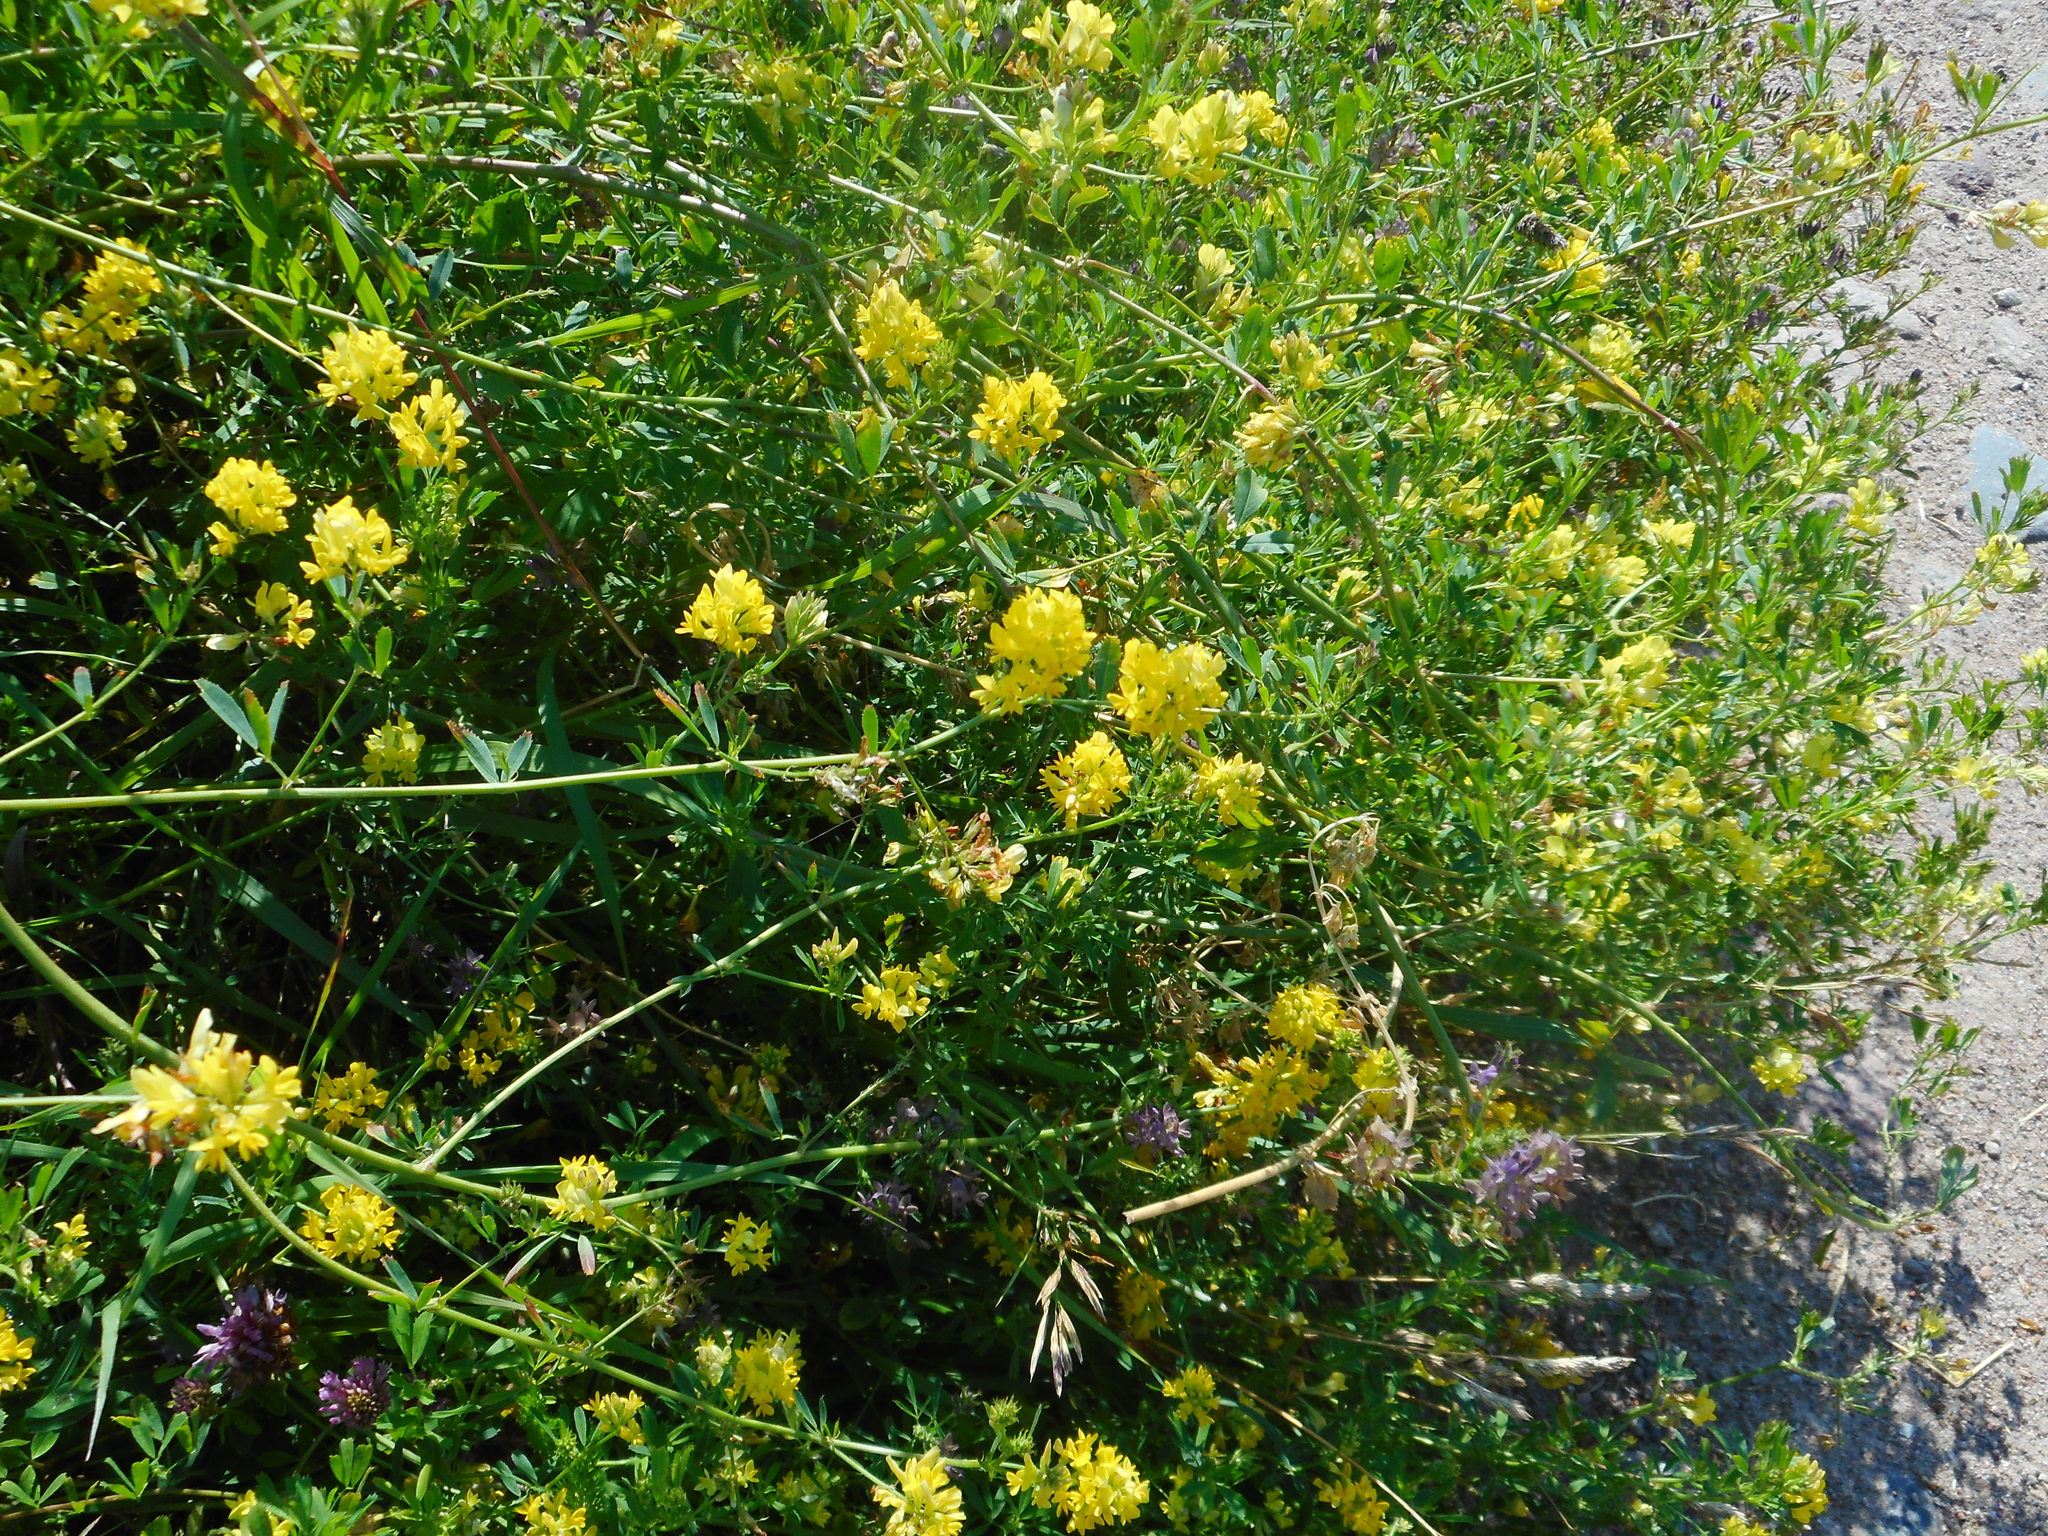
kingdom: Plantae
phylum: Tracheophyta
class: Magnoliopsida
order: Fabales
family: Fabaceae
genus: Medicago
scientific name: Medicago varia
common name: Sand lucerne
